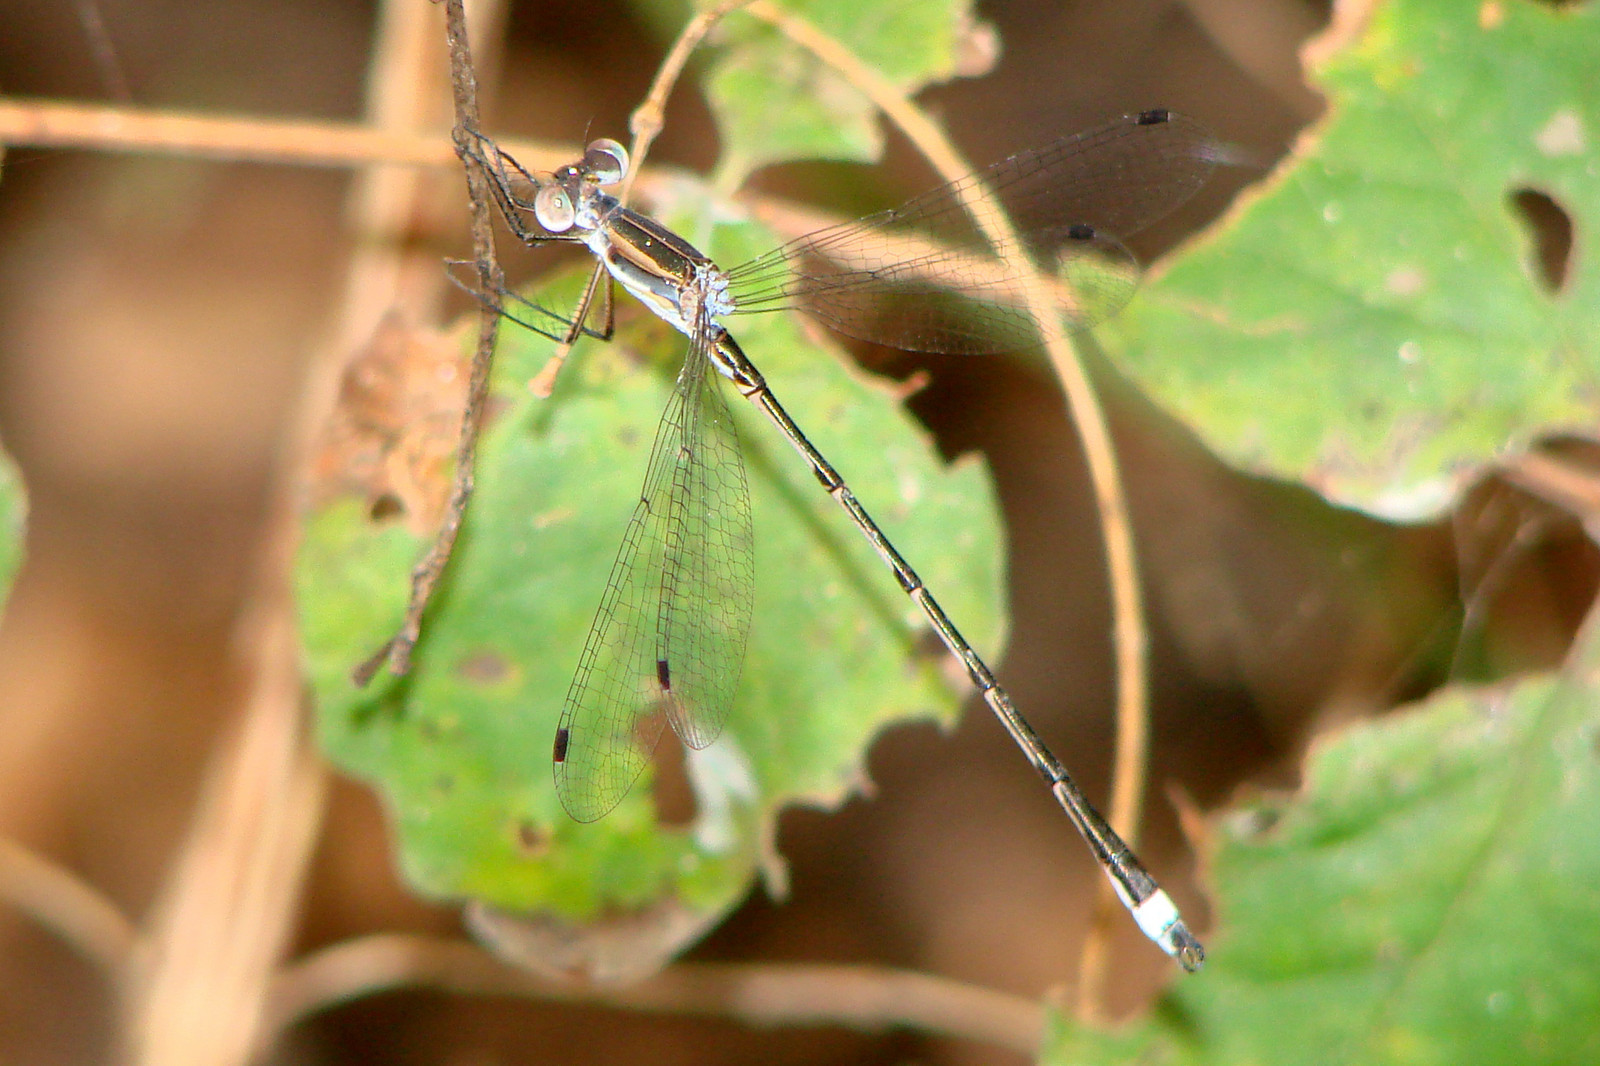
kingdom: Animalia
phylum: Arthropoda
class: Insecta
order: Odonata
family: Lestidae
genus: Lestes
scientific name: Lestes australis
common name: Southern spreadwing
